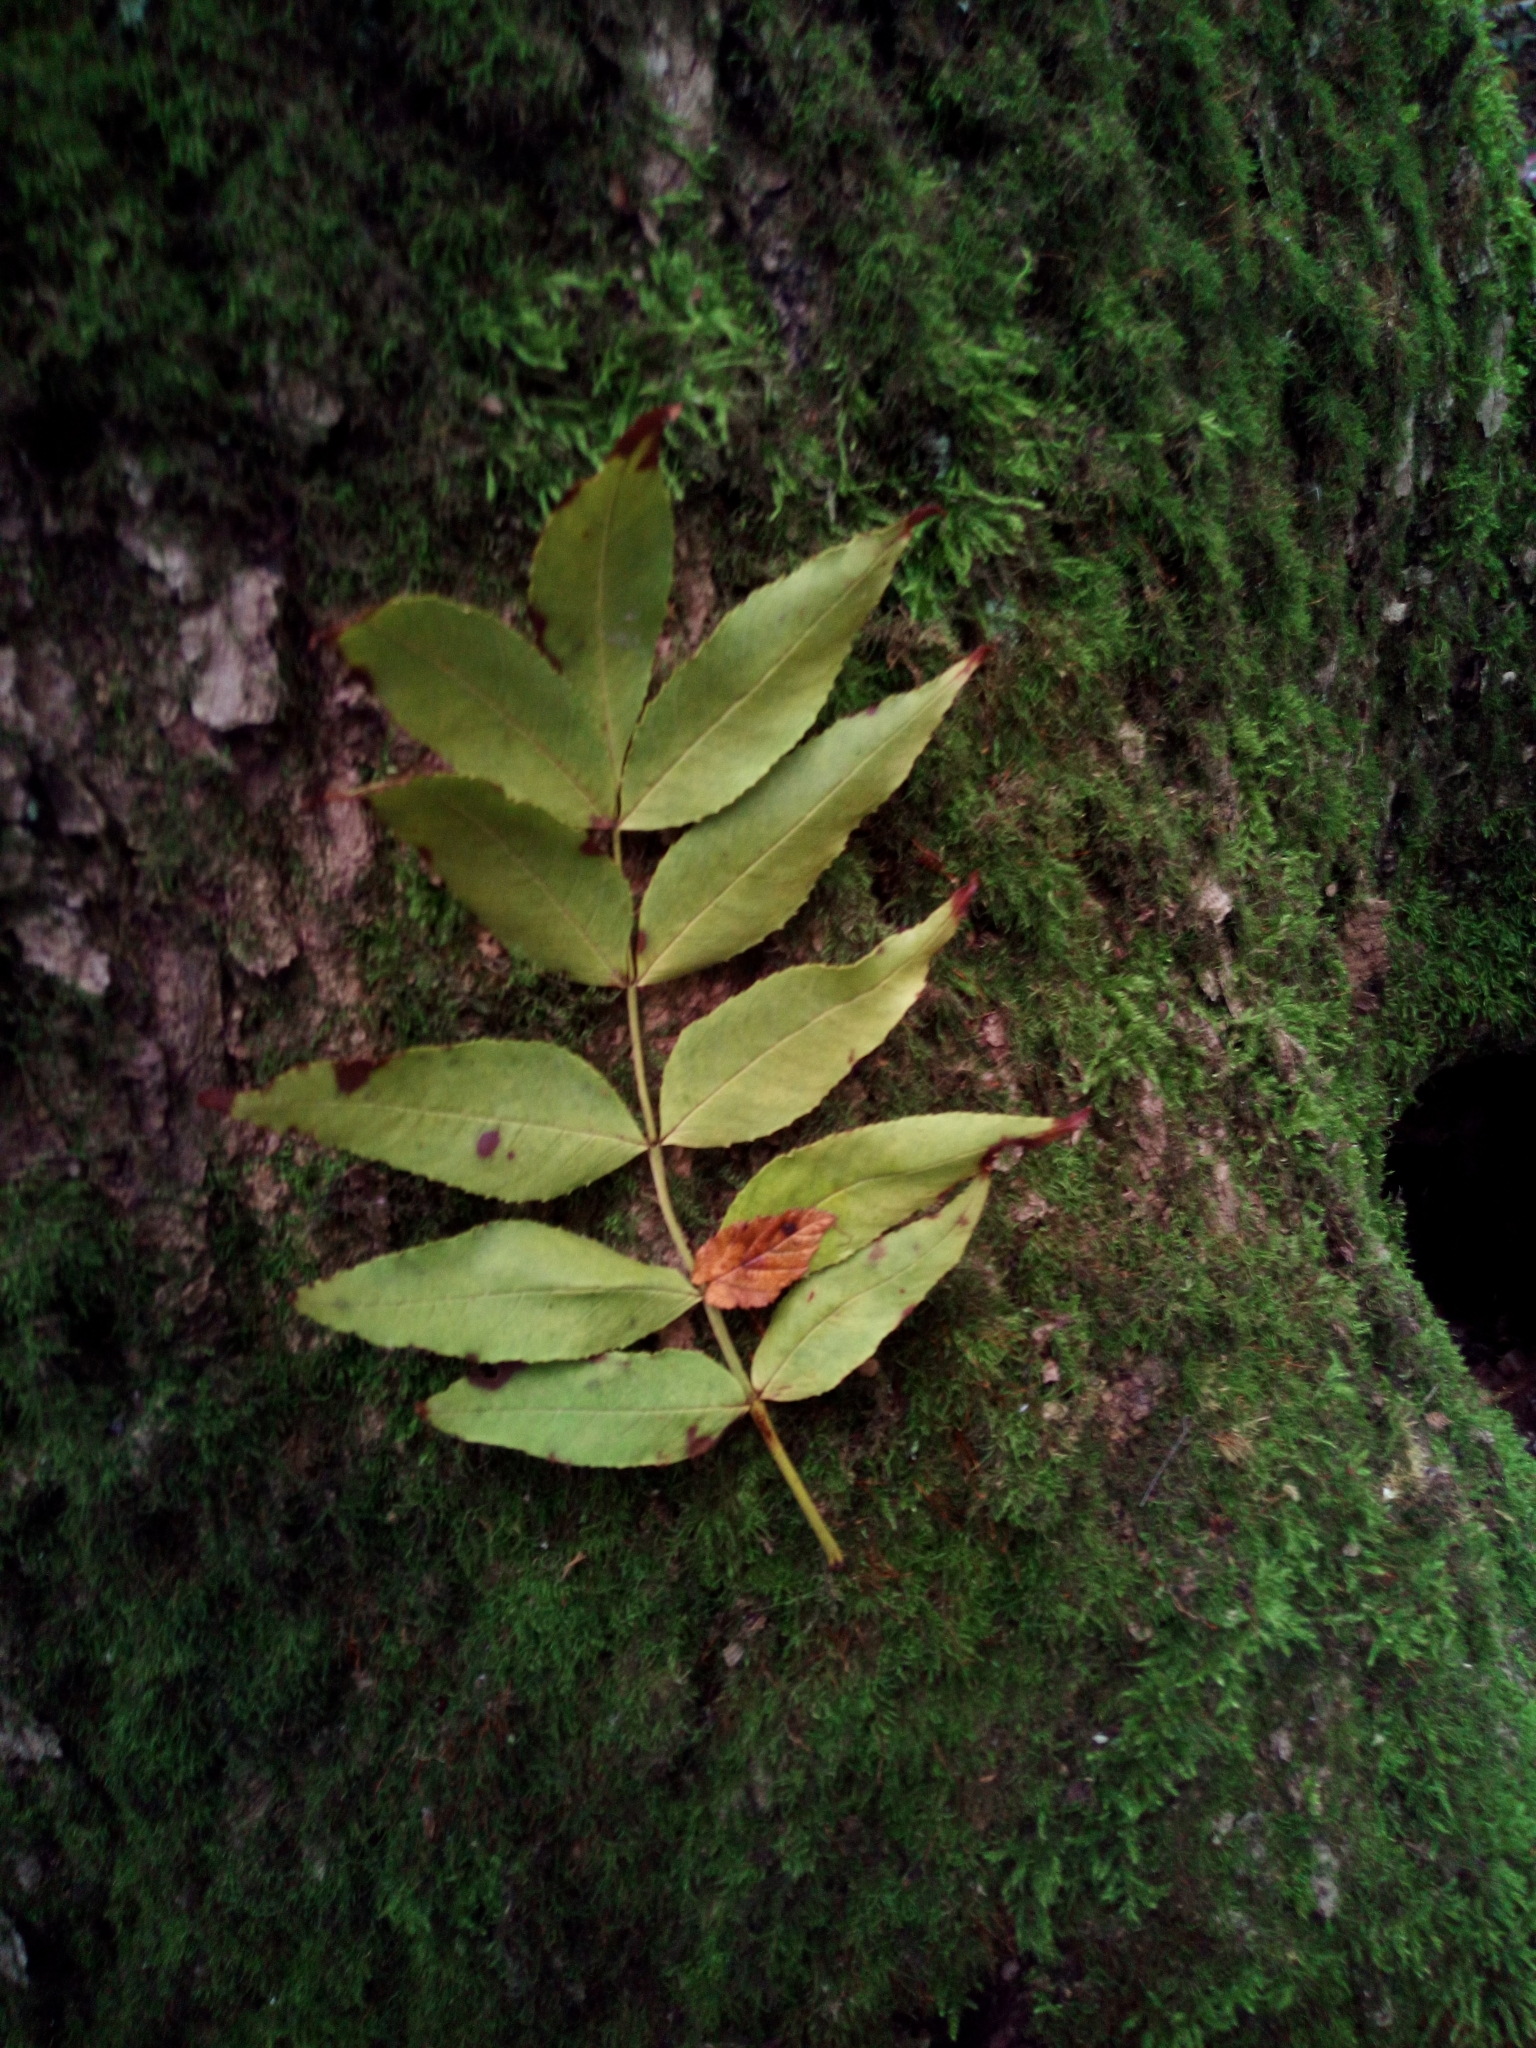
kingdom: Plantae
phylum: Tracheophyta
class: Magnoliopsida
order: Lamiales
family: Oleaceae
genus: Fraxinus
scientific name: Fraxinus excelsior
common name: European ash
